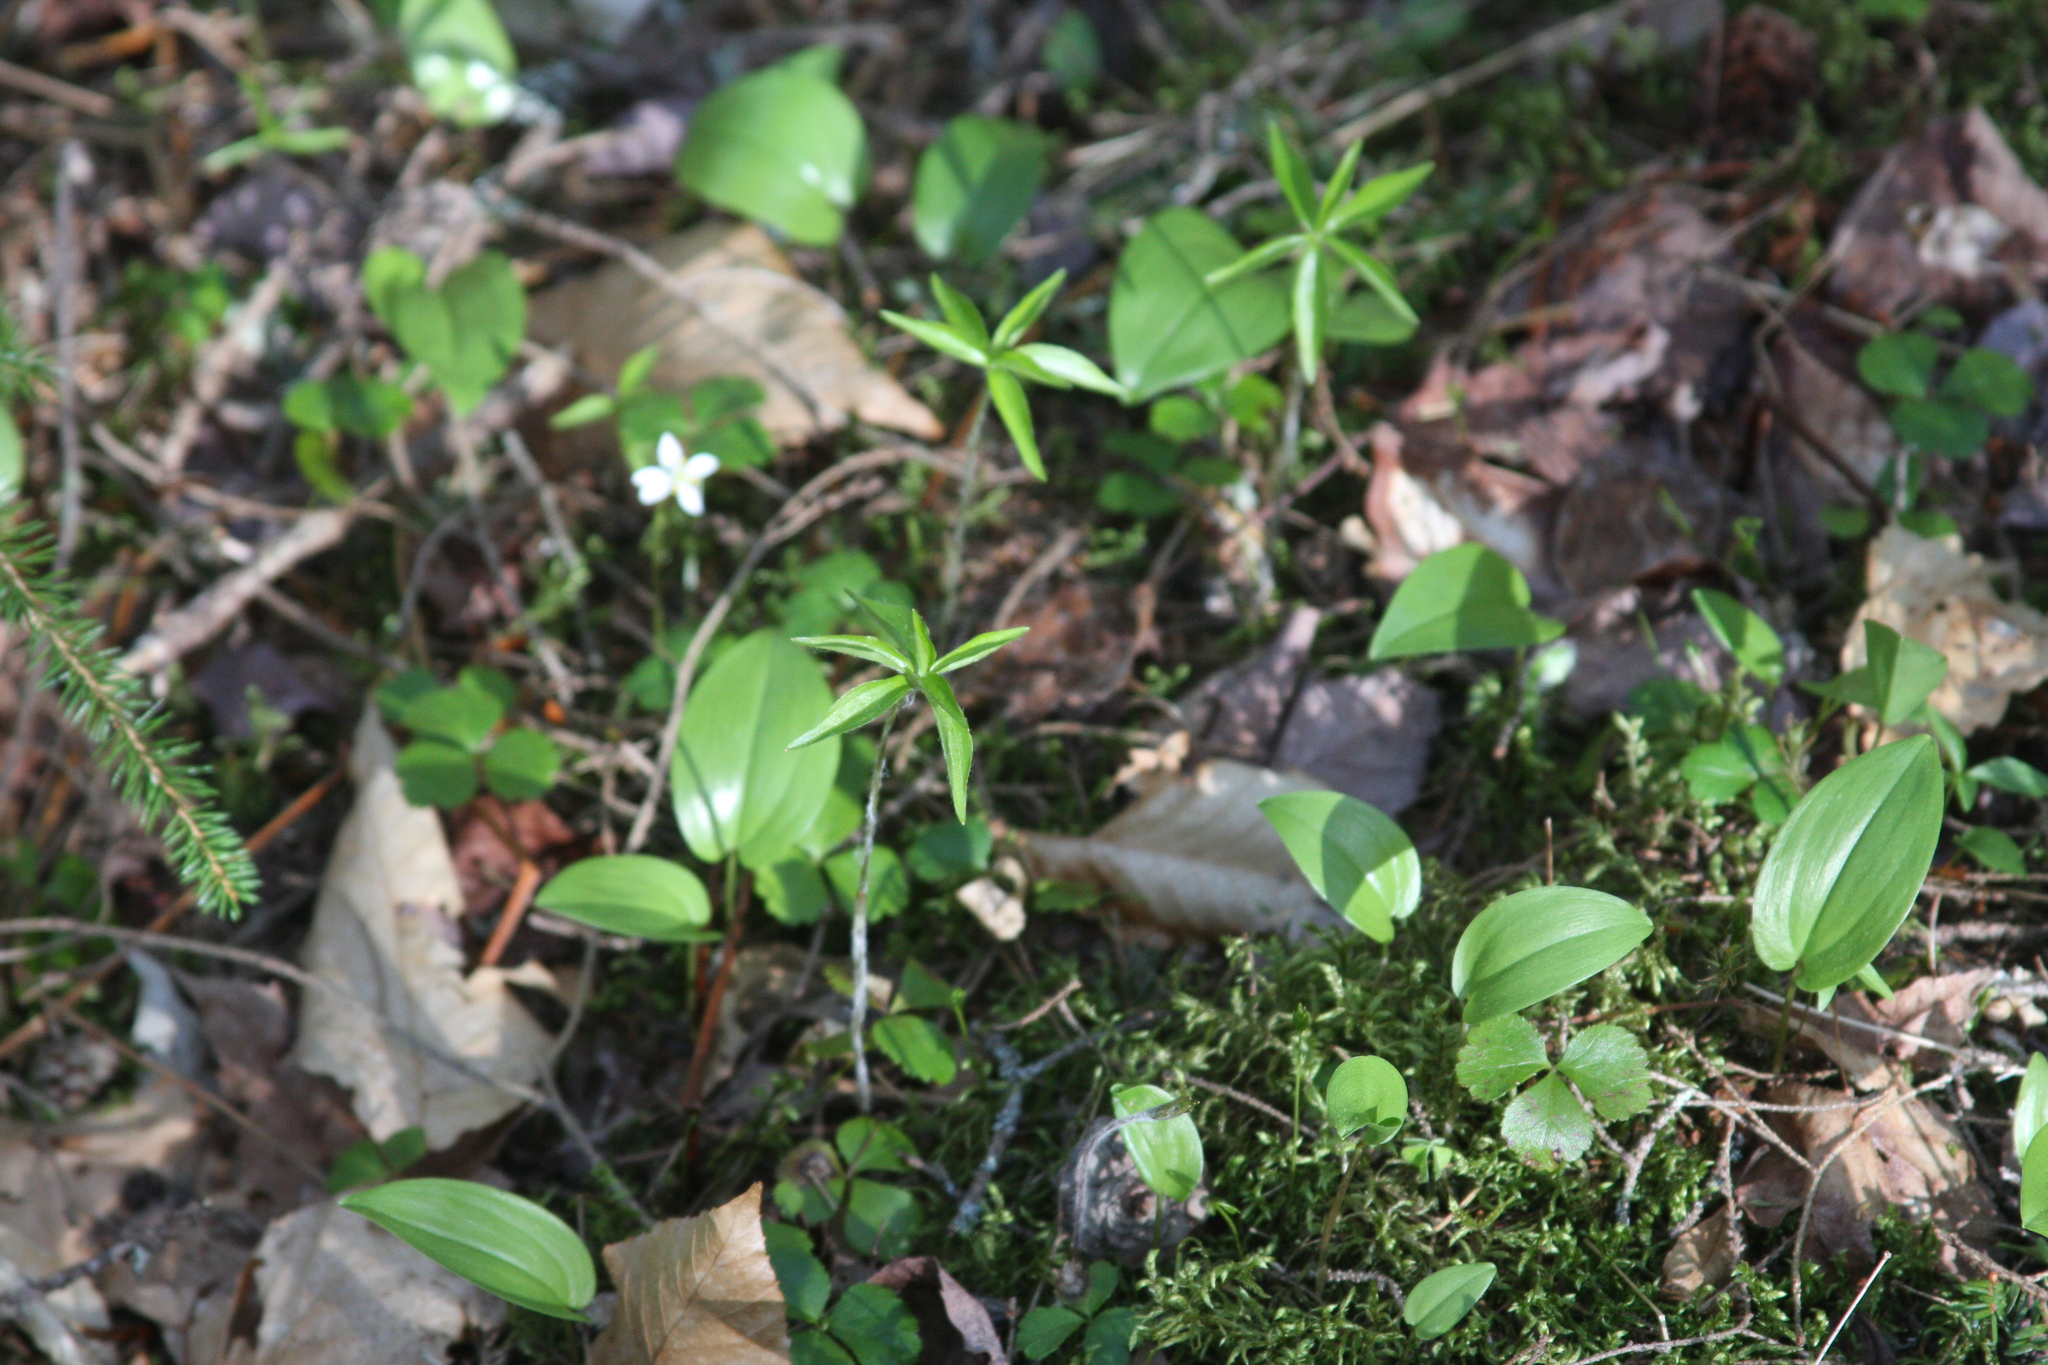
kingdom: Plantae
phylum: Tracheophyta
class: Liliopsida
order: Asparagales
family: Asparagaceae
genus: Maianthemum
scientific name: Maianthemum canadense
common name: False lily-of-the-valley
